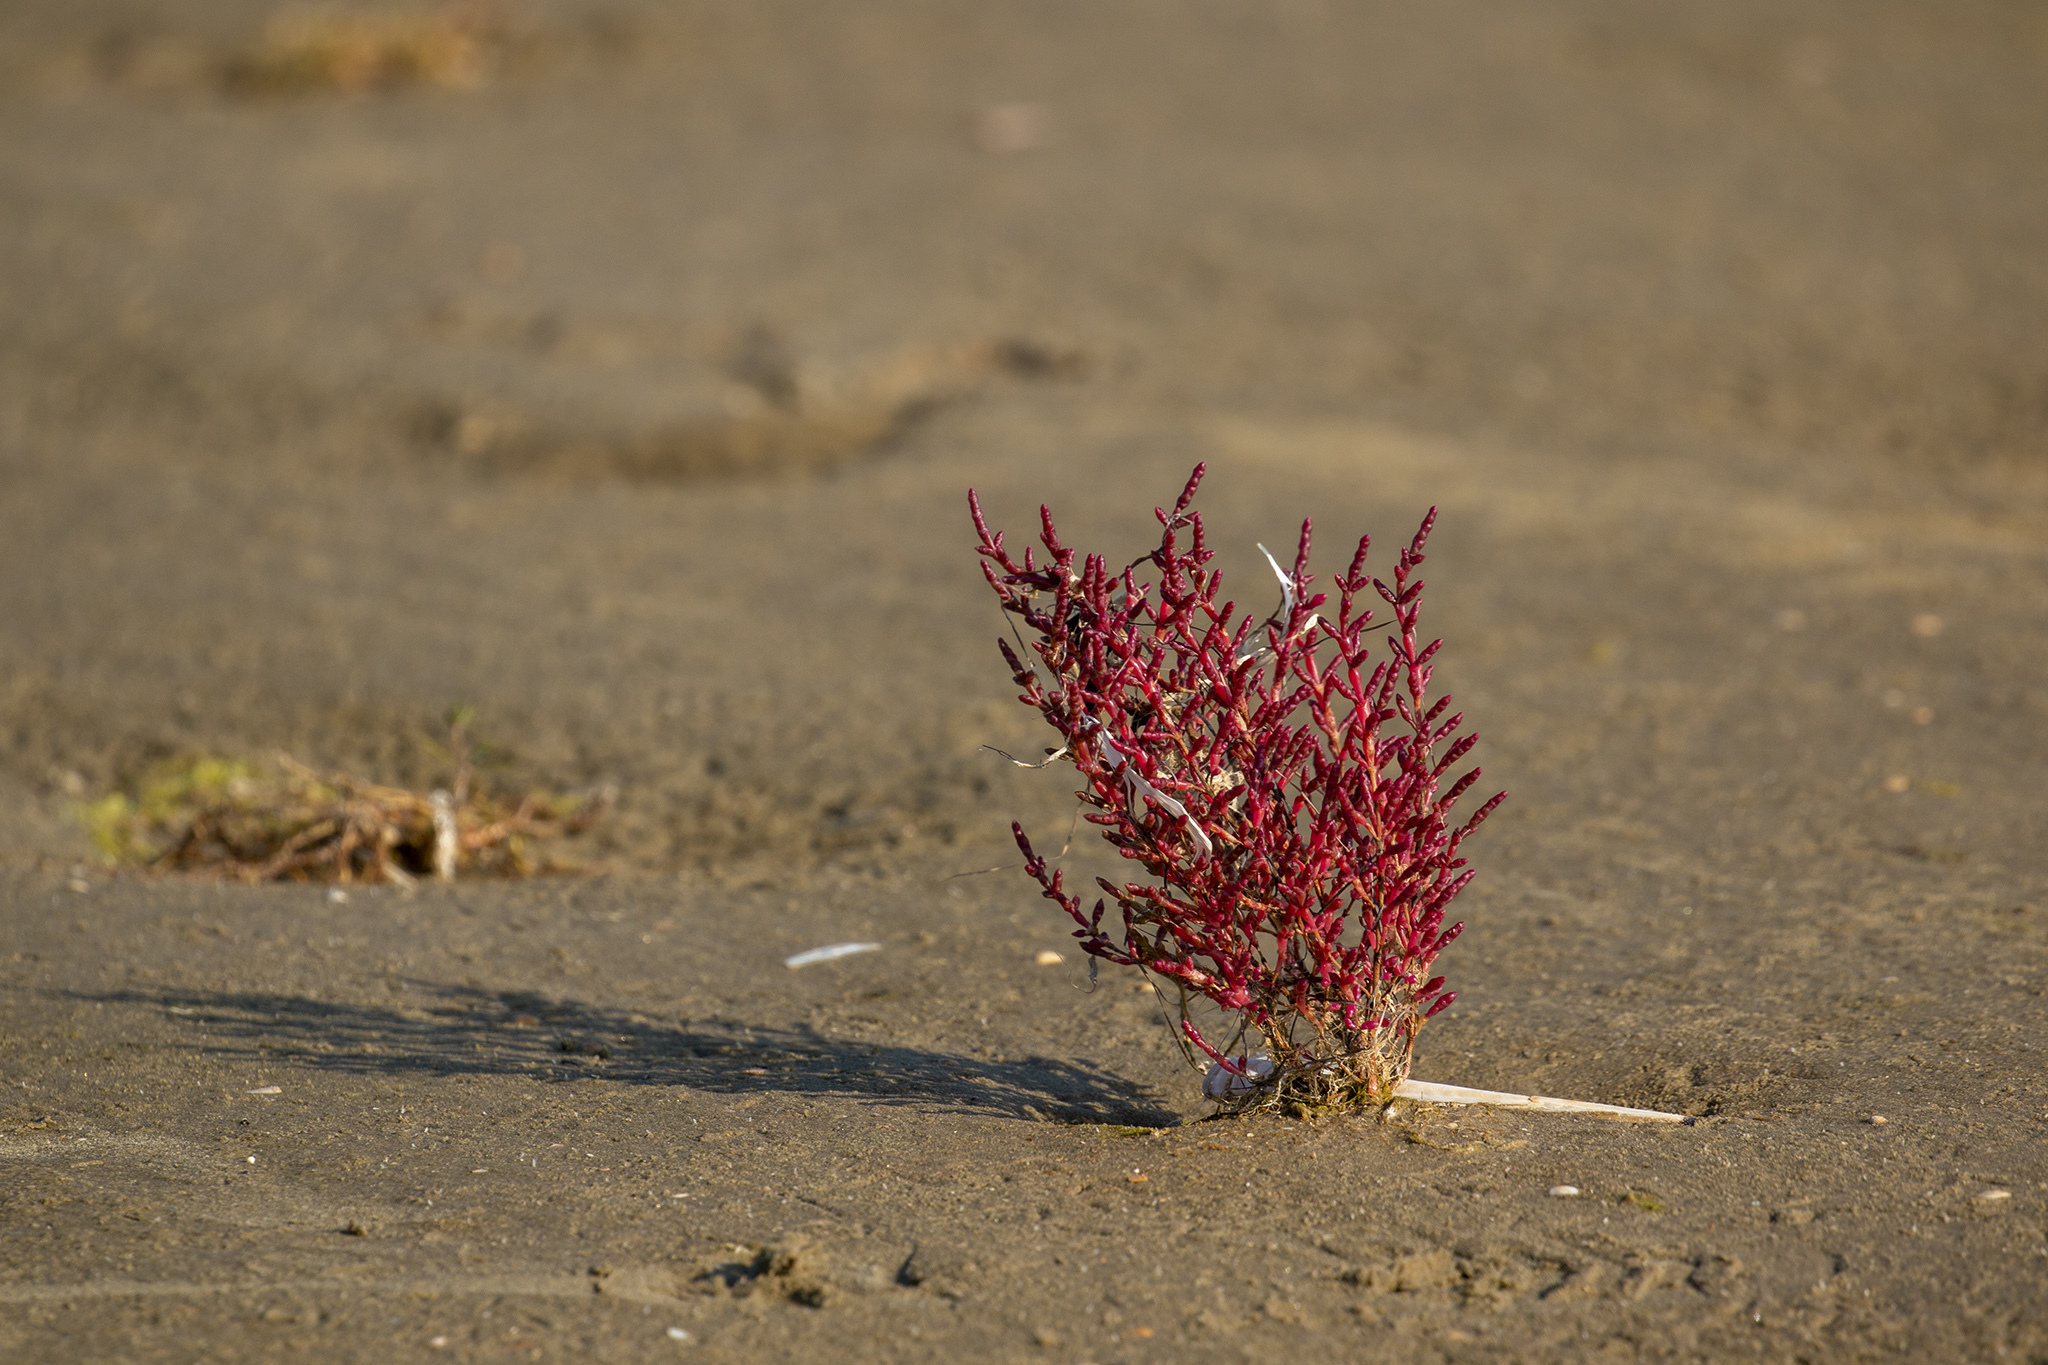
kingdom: Plantae
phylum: Tracheophyta
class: Magnoliopsida
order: Caryophyllales
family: Amaranthaceae
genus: Salicornia
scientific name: Salicornia europaea
